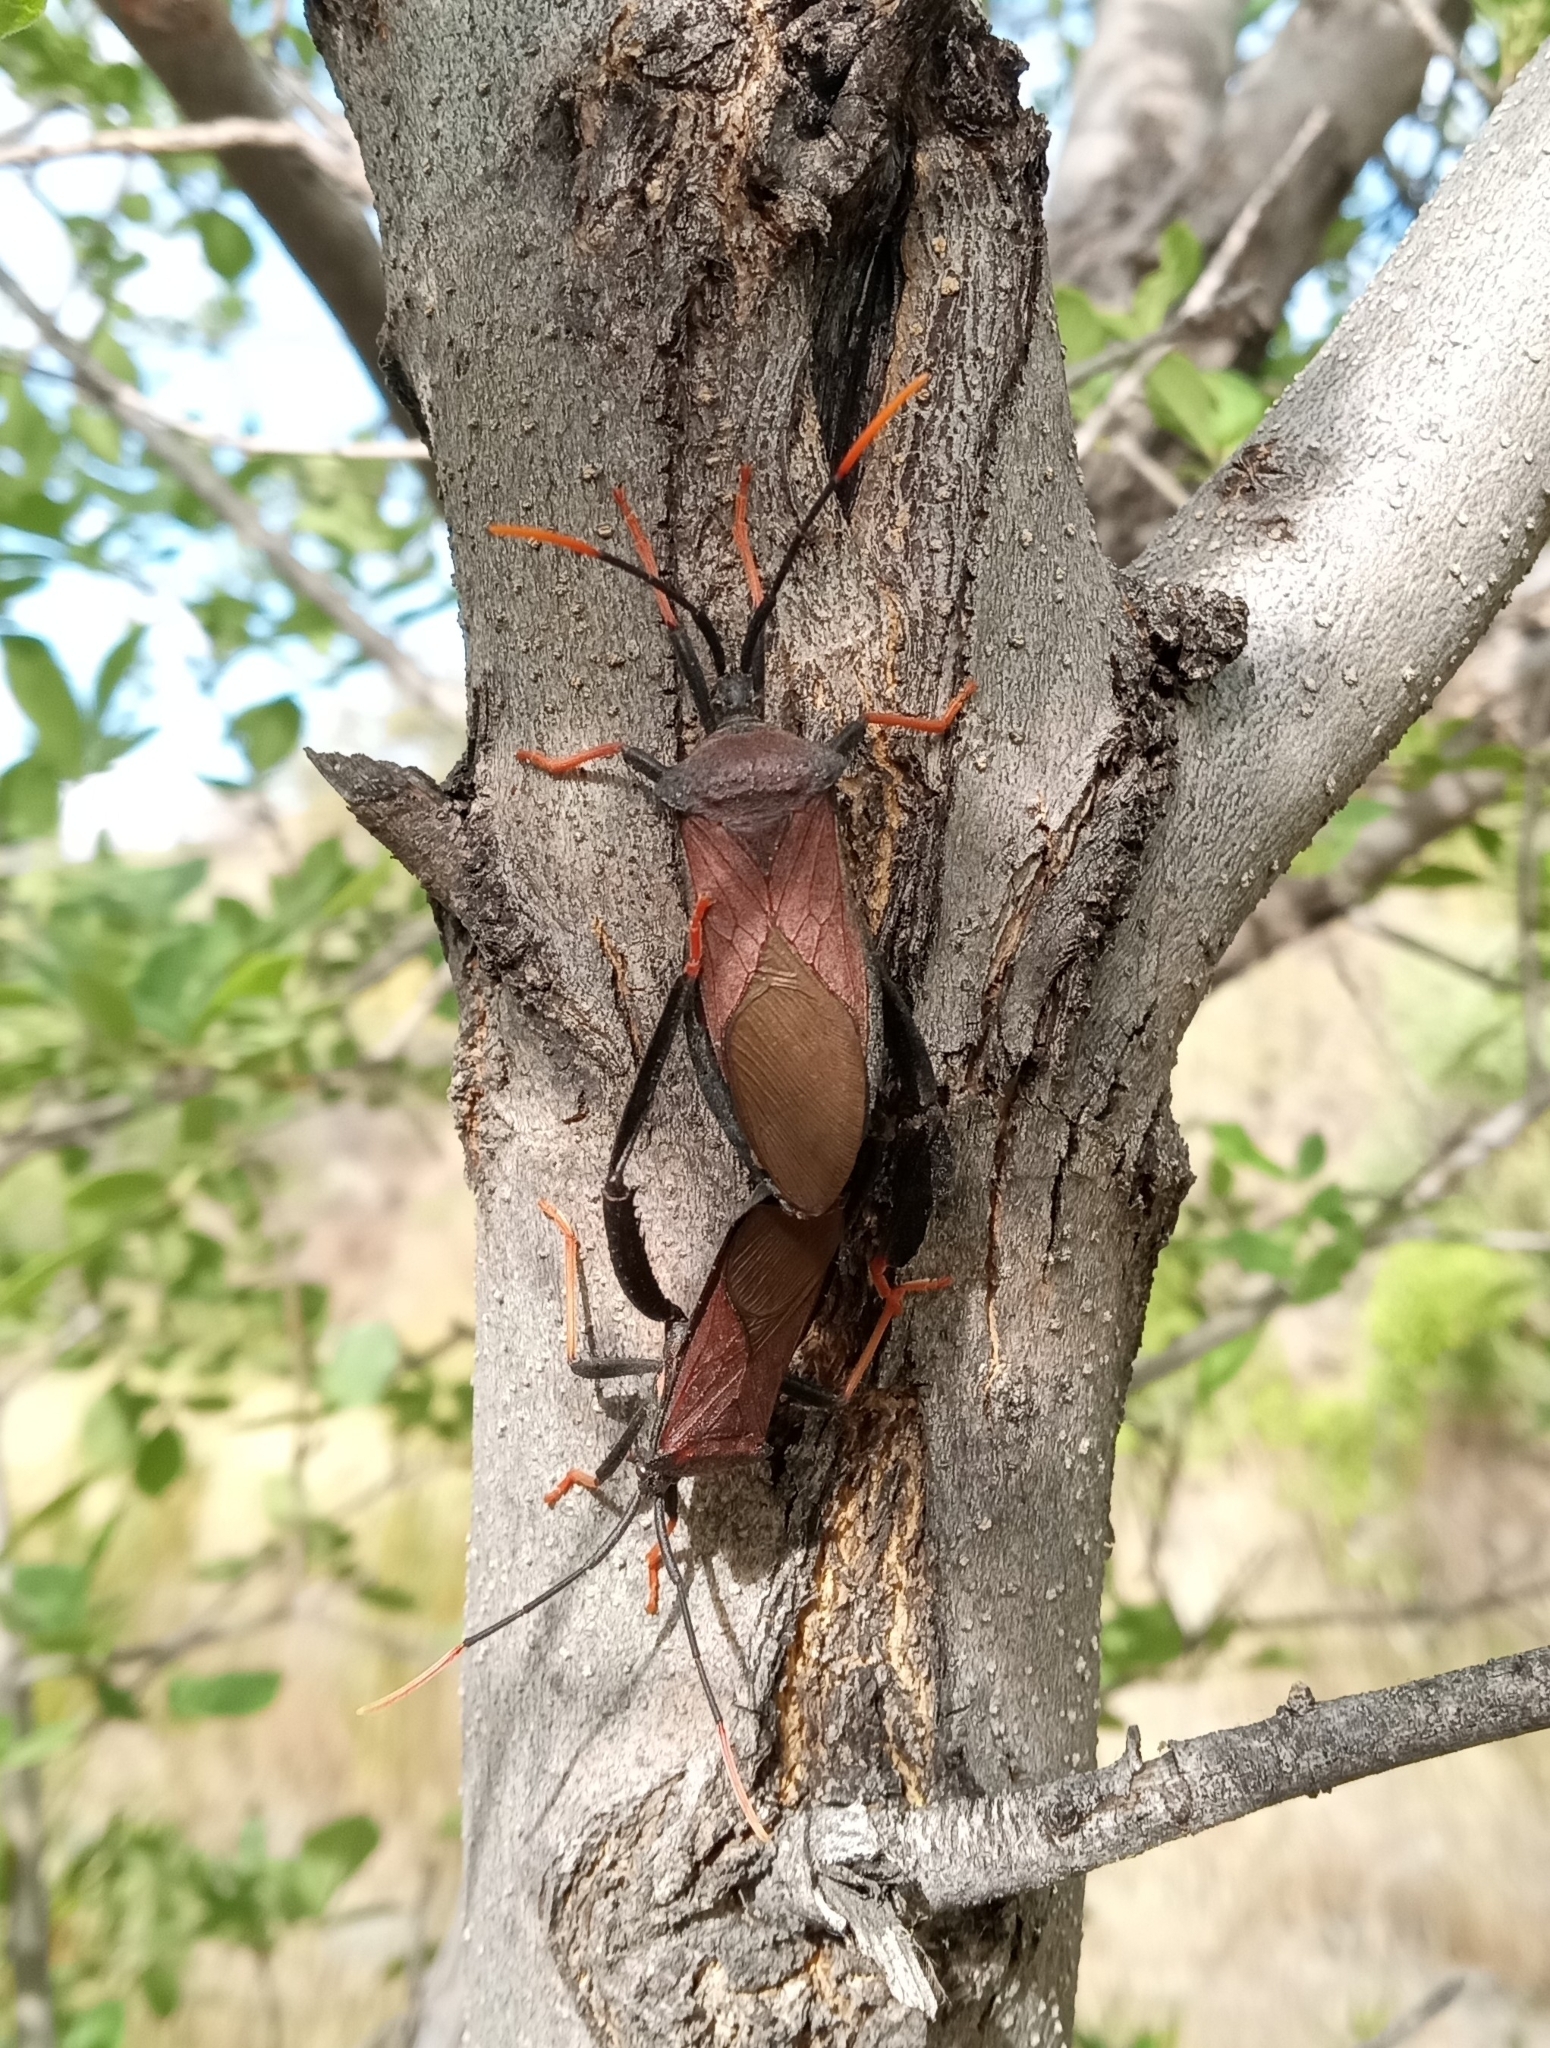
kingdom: Animalia
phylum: Arthropoda
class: Insecta
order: Hemiptera
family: Coreidae
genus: Acanthocephala
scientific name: Acanthocephala thomasi
